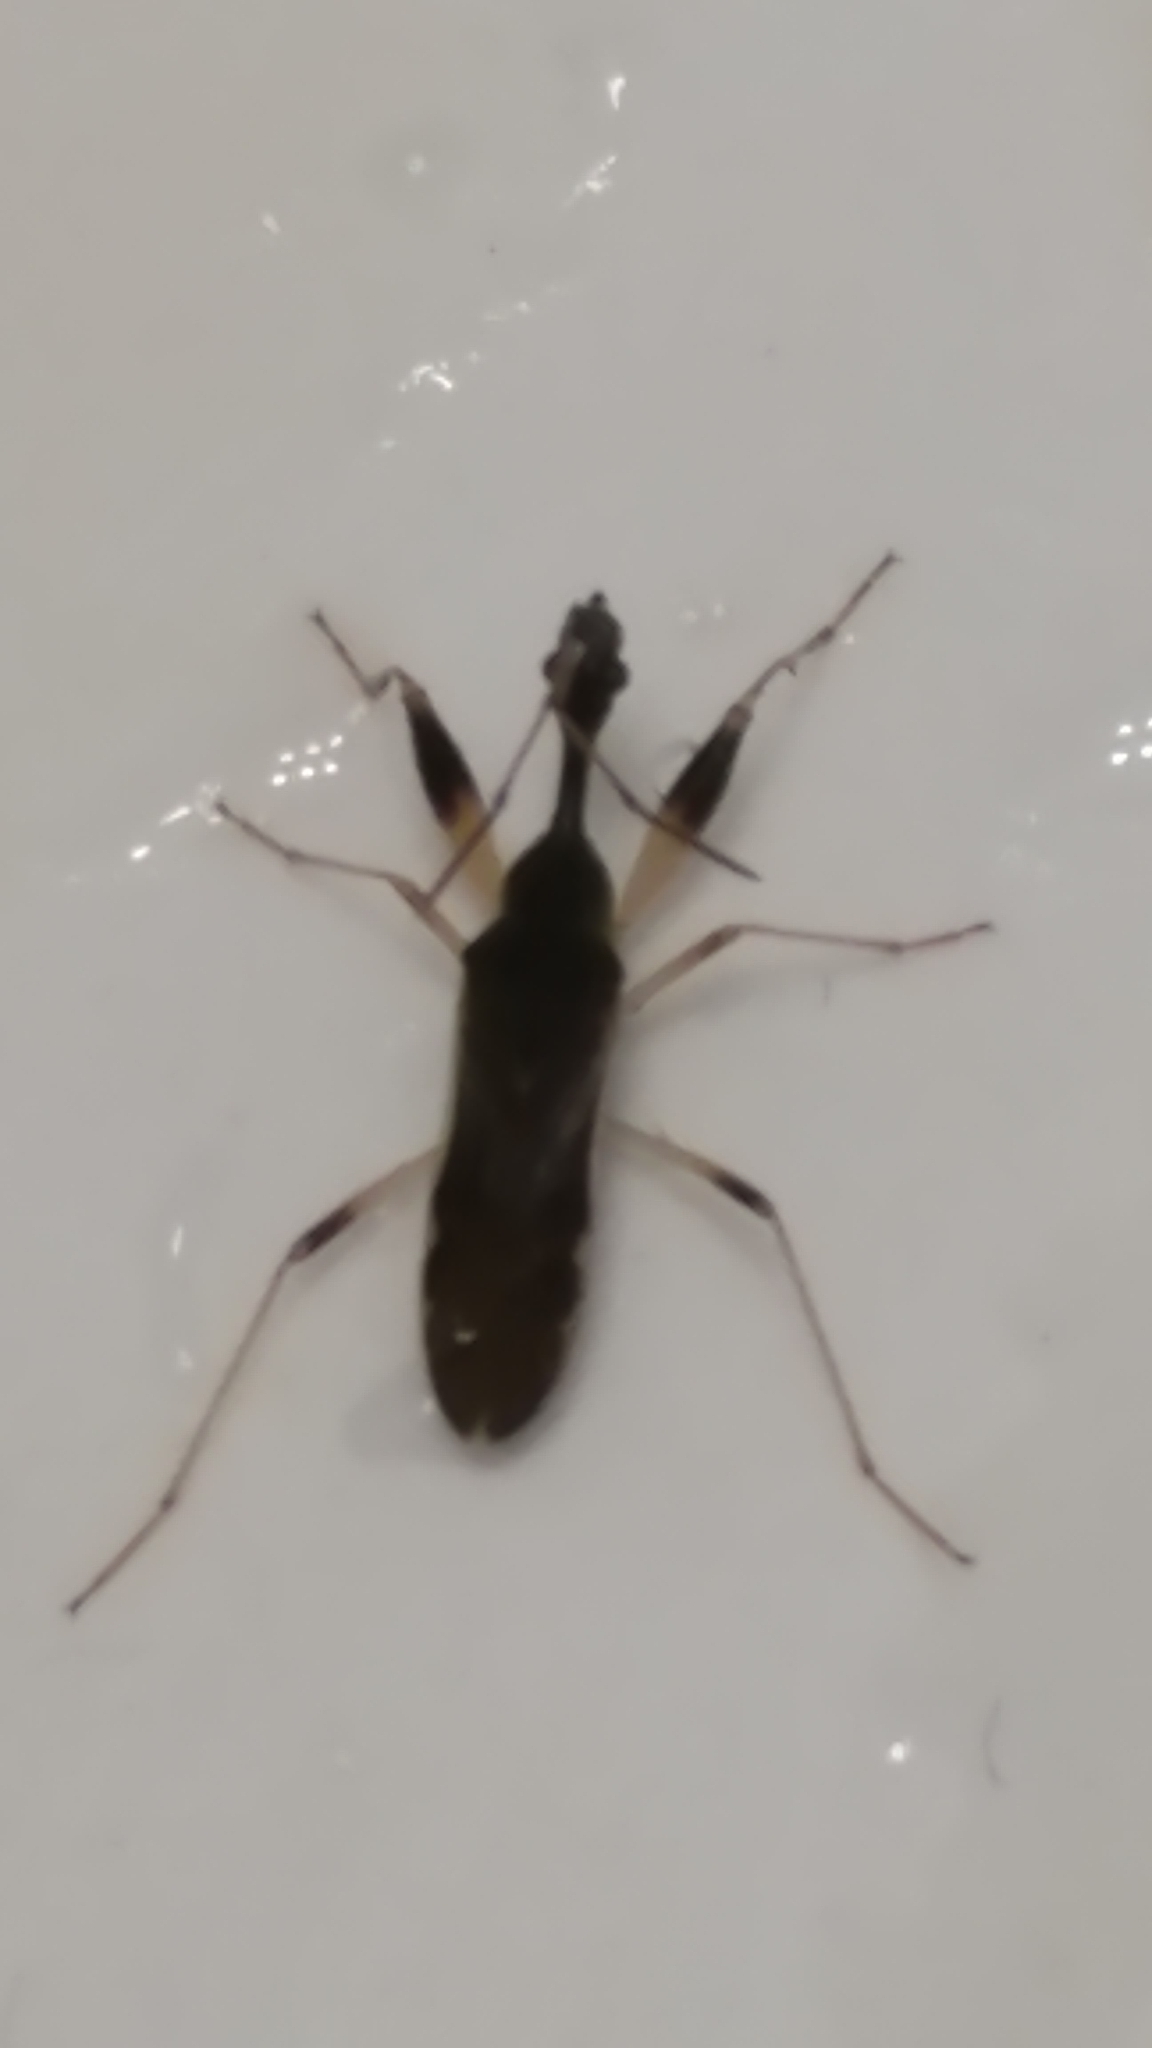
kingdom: Animalia
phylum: Arthropoda
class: Insecta
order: Hemiptera
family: Rhyparochromidae
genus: Myodocha
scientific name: Myodocha serripes
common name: Long-necked seed bug
